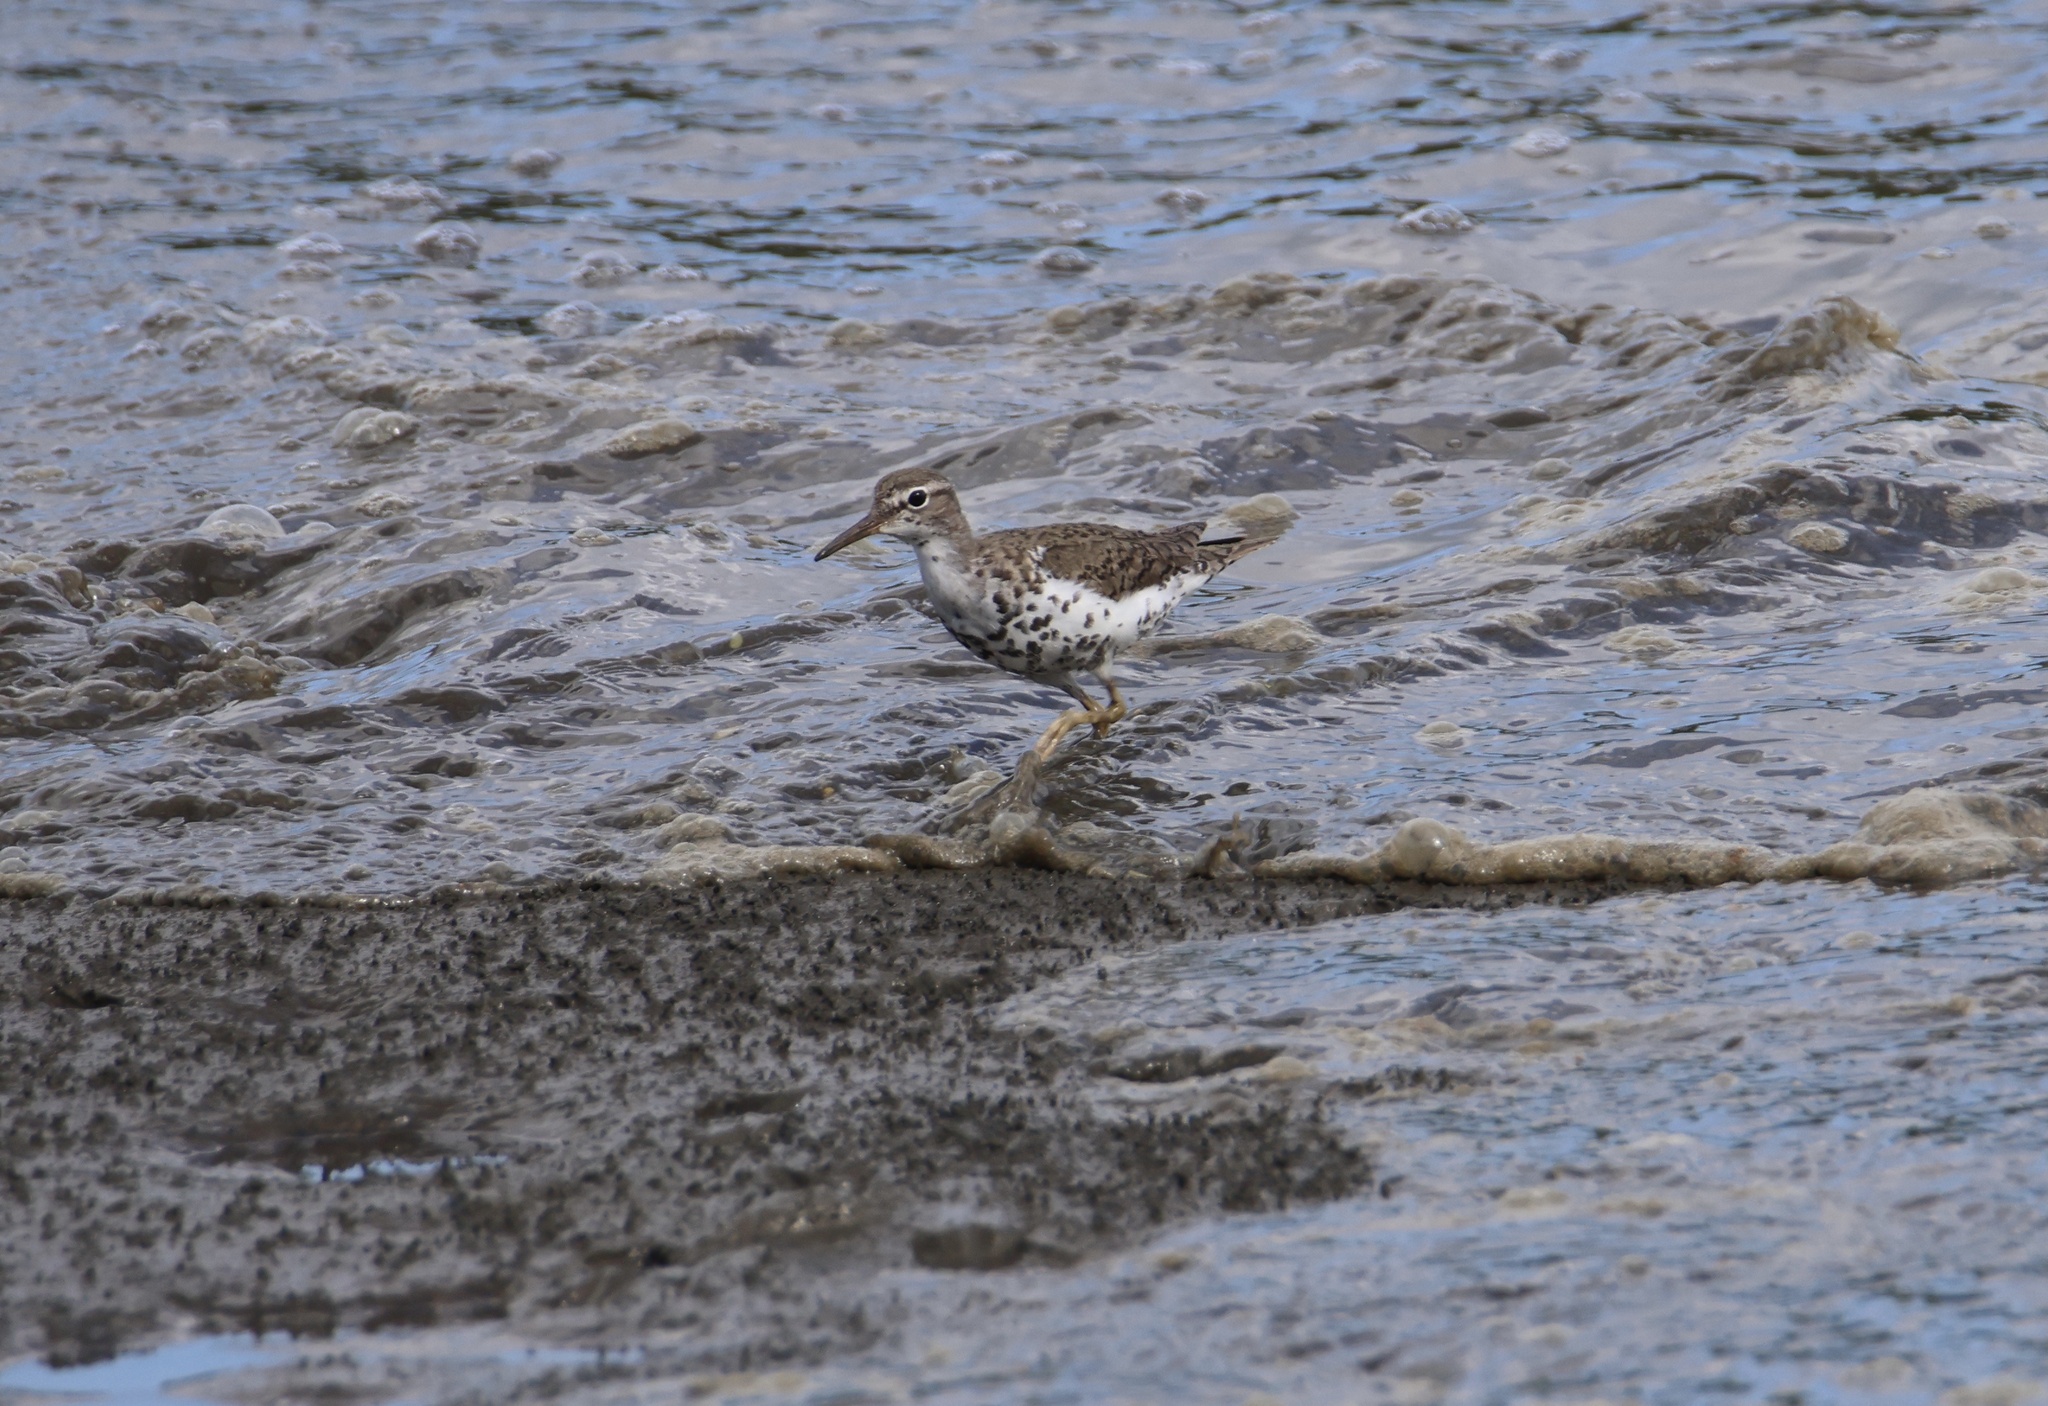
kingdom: Animalia
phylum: Chordata
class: Aves
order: Charadriiformes
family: Scolopacidae
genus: Actitis
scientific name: Actitis macularius
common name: Spotted sandpiper
